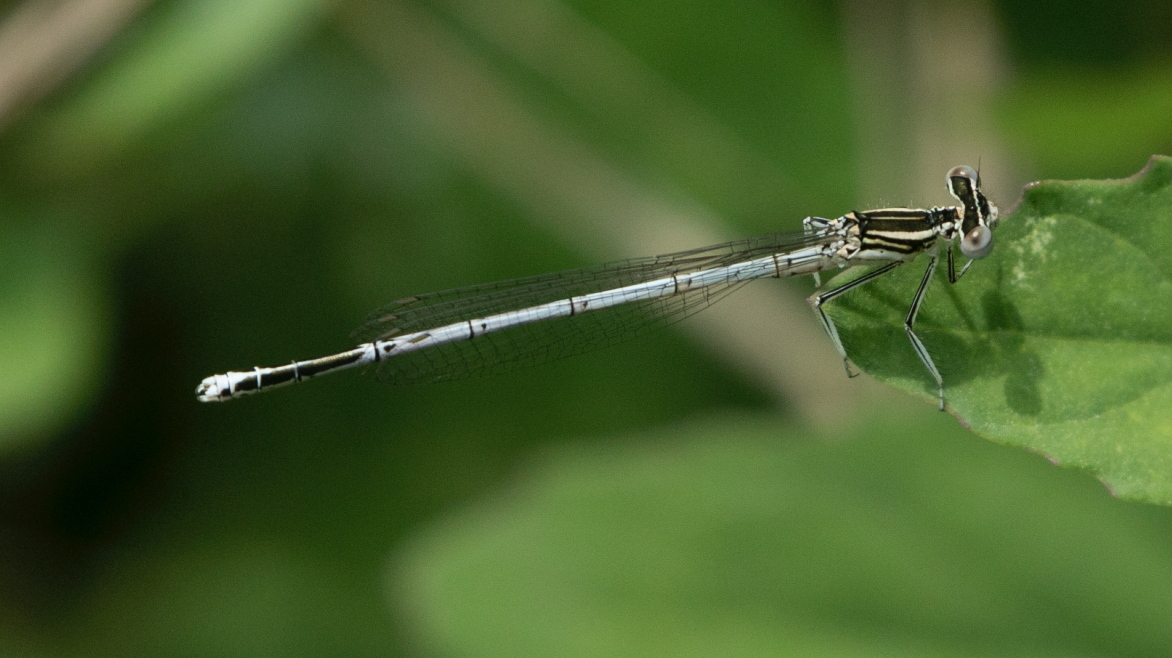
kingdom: Animalia
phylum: Arthropoda
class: Insecta
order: Odonata
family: Platycnemididae
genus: Platycnemis
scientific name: Platycnemis pennipes
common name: White-legged damselfly
